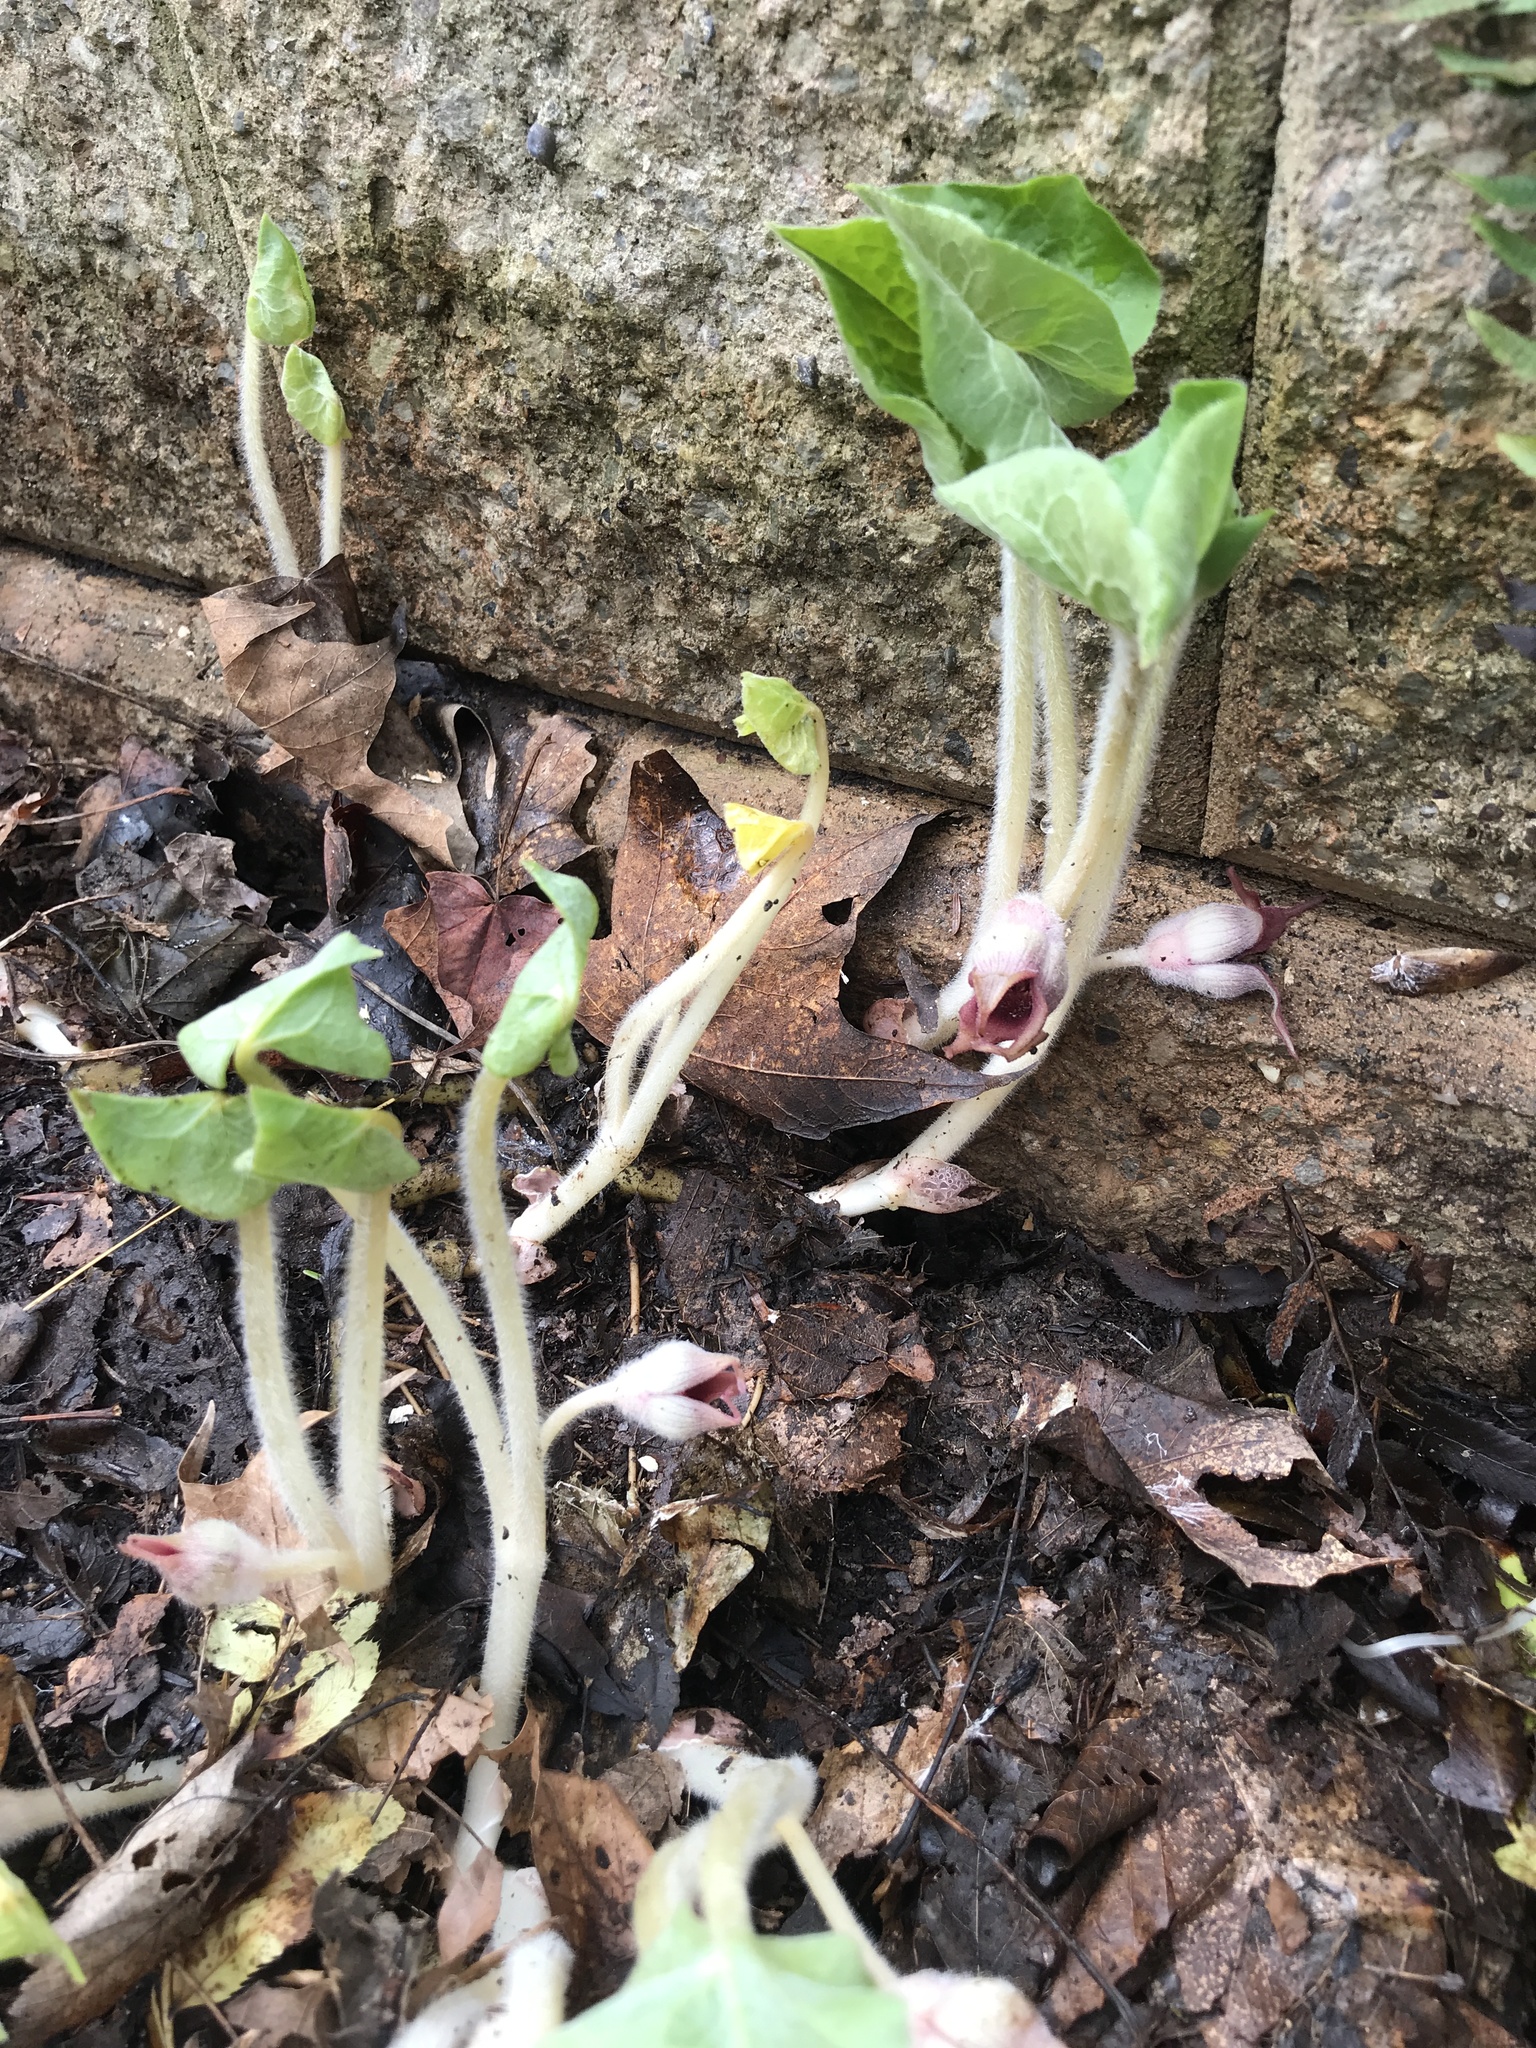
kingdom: Plantae
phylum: Tracheophyta
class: Magnoliopsida
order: Piperales
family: Aristolochiaceae
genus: Asarum
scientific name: Asarum canadense
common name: Wild ginger
